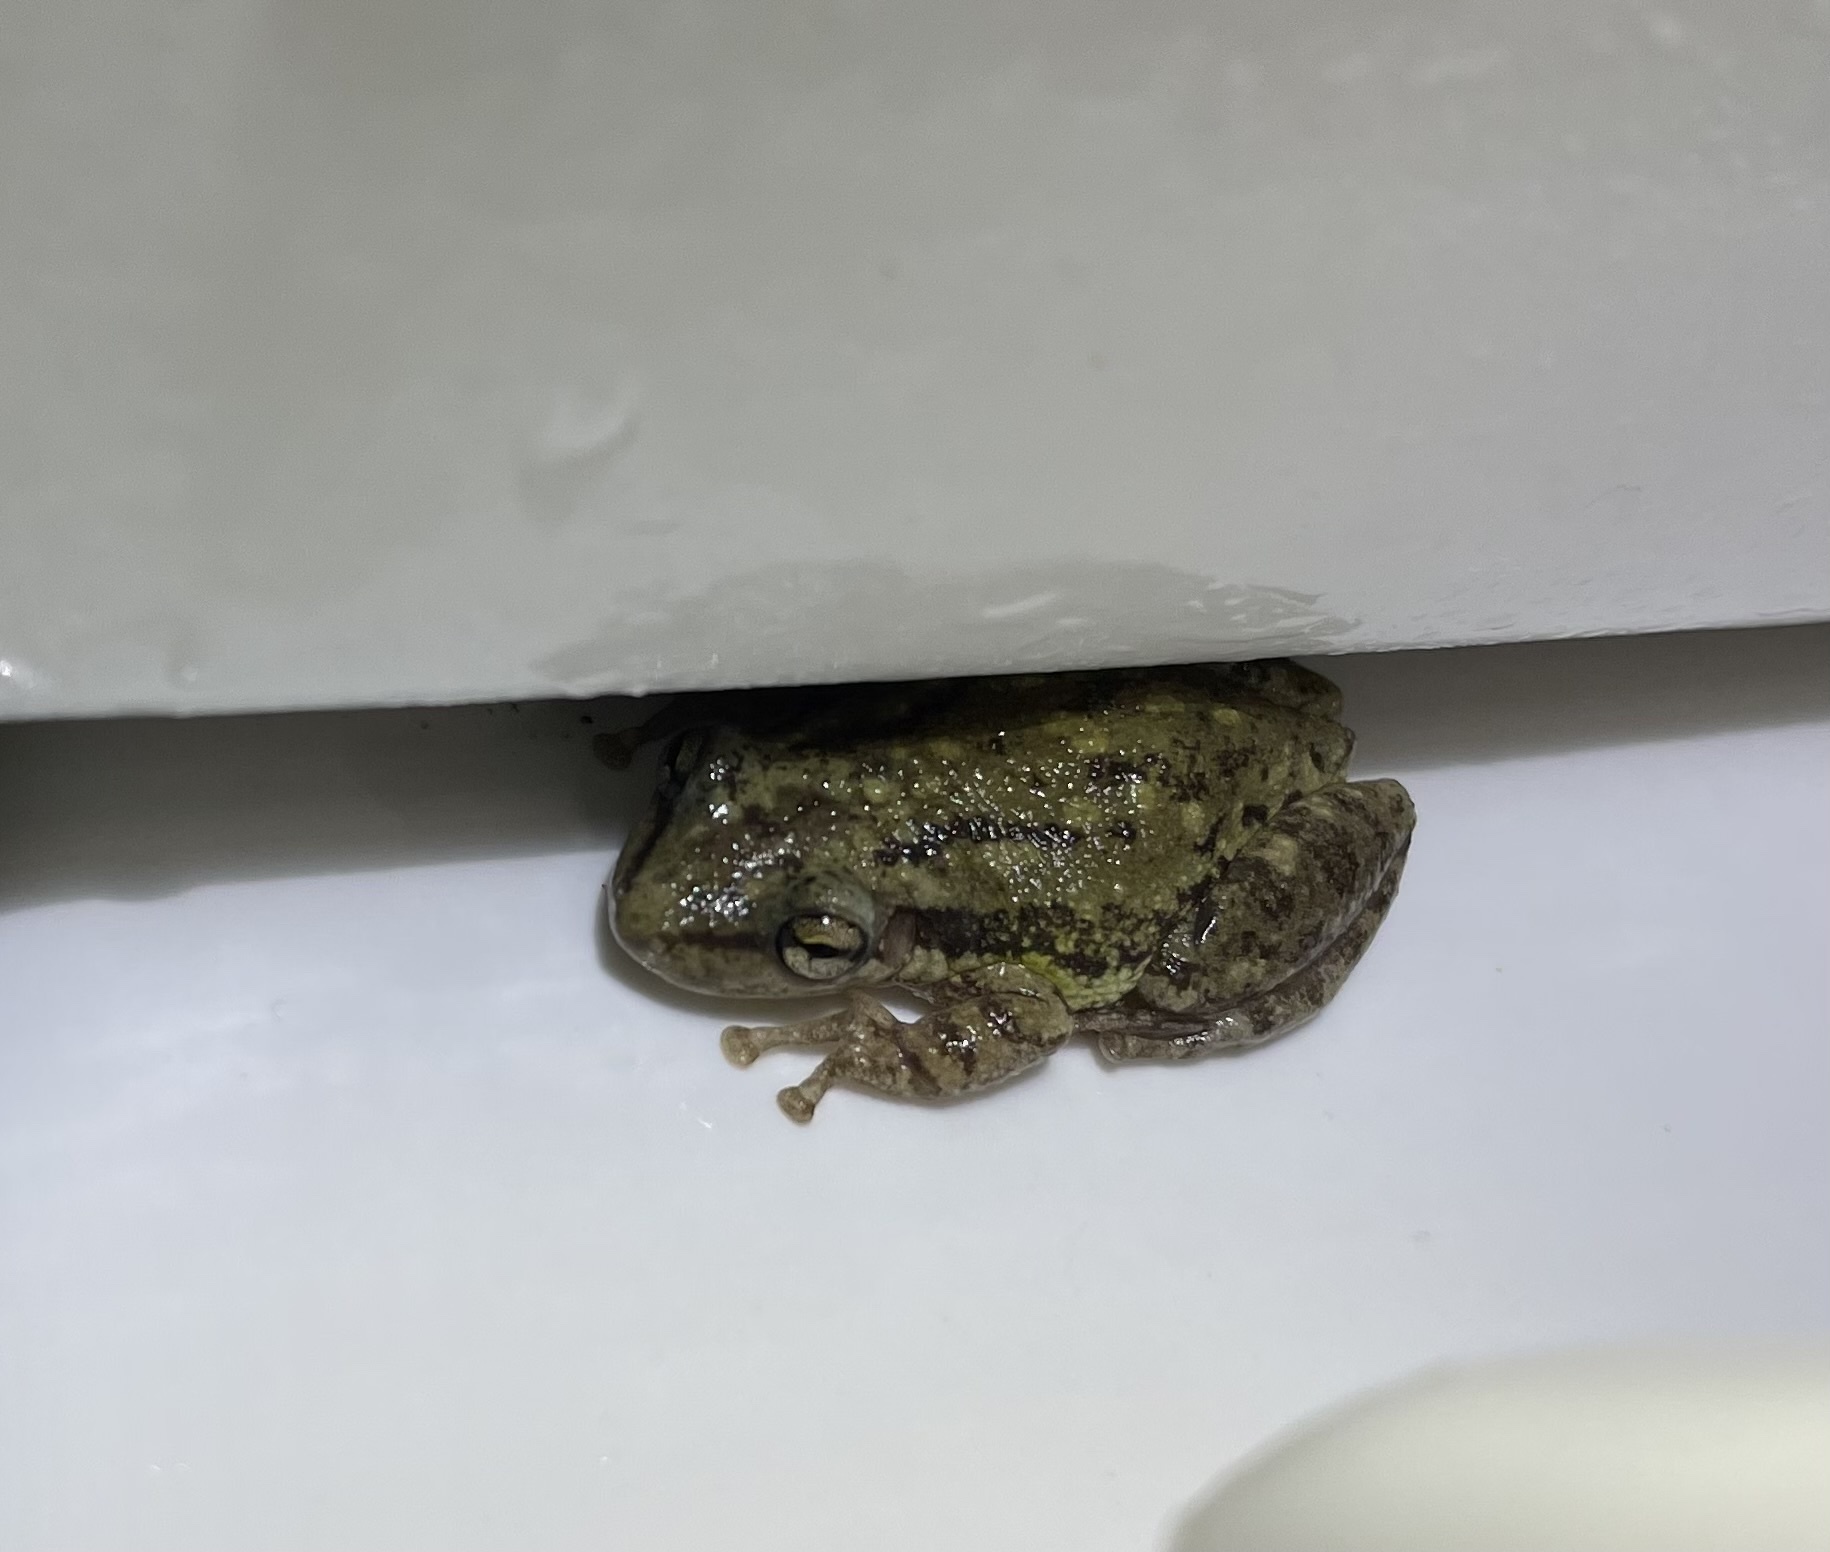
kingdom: Animalia
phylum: Chordata
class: Amphibia
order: Anura
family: Hylidae
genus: Scinax
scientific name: Scinax nasicus
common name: Lesser snouted treefrog
